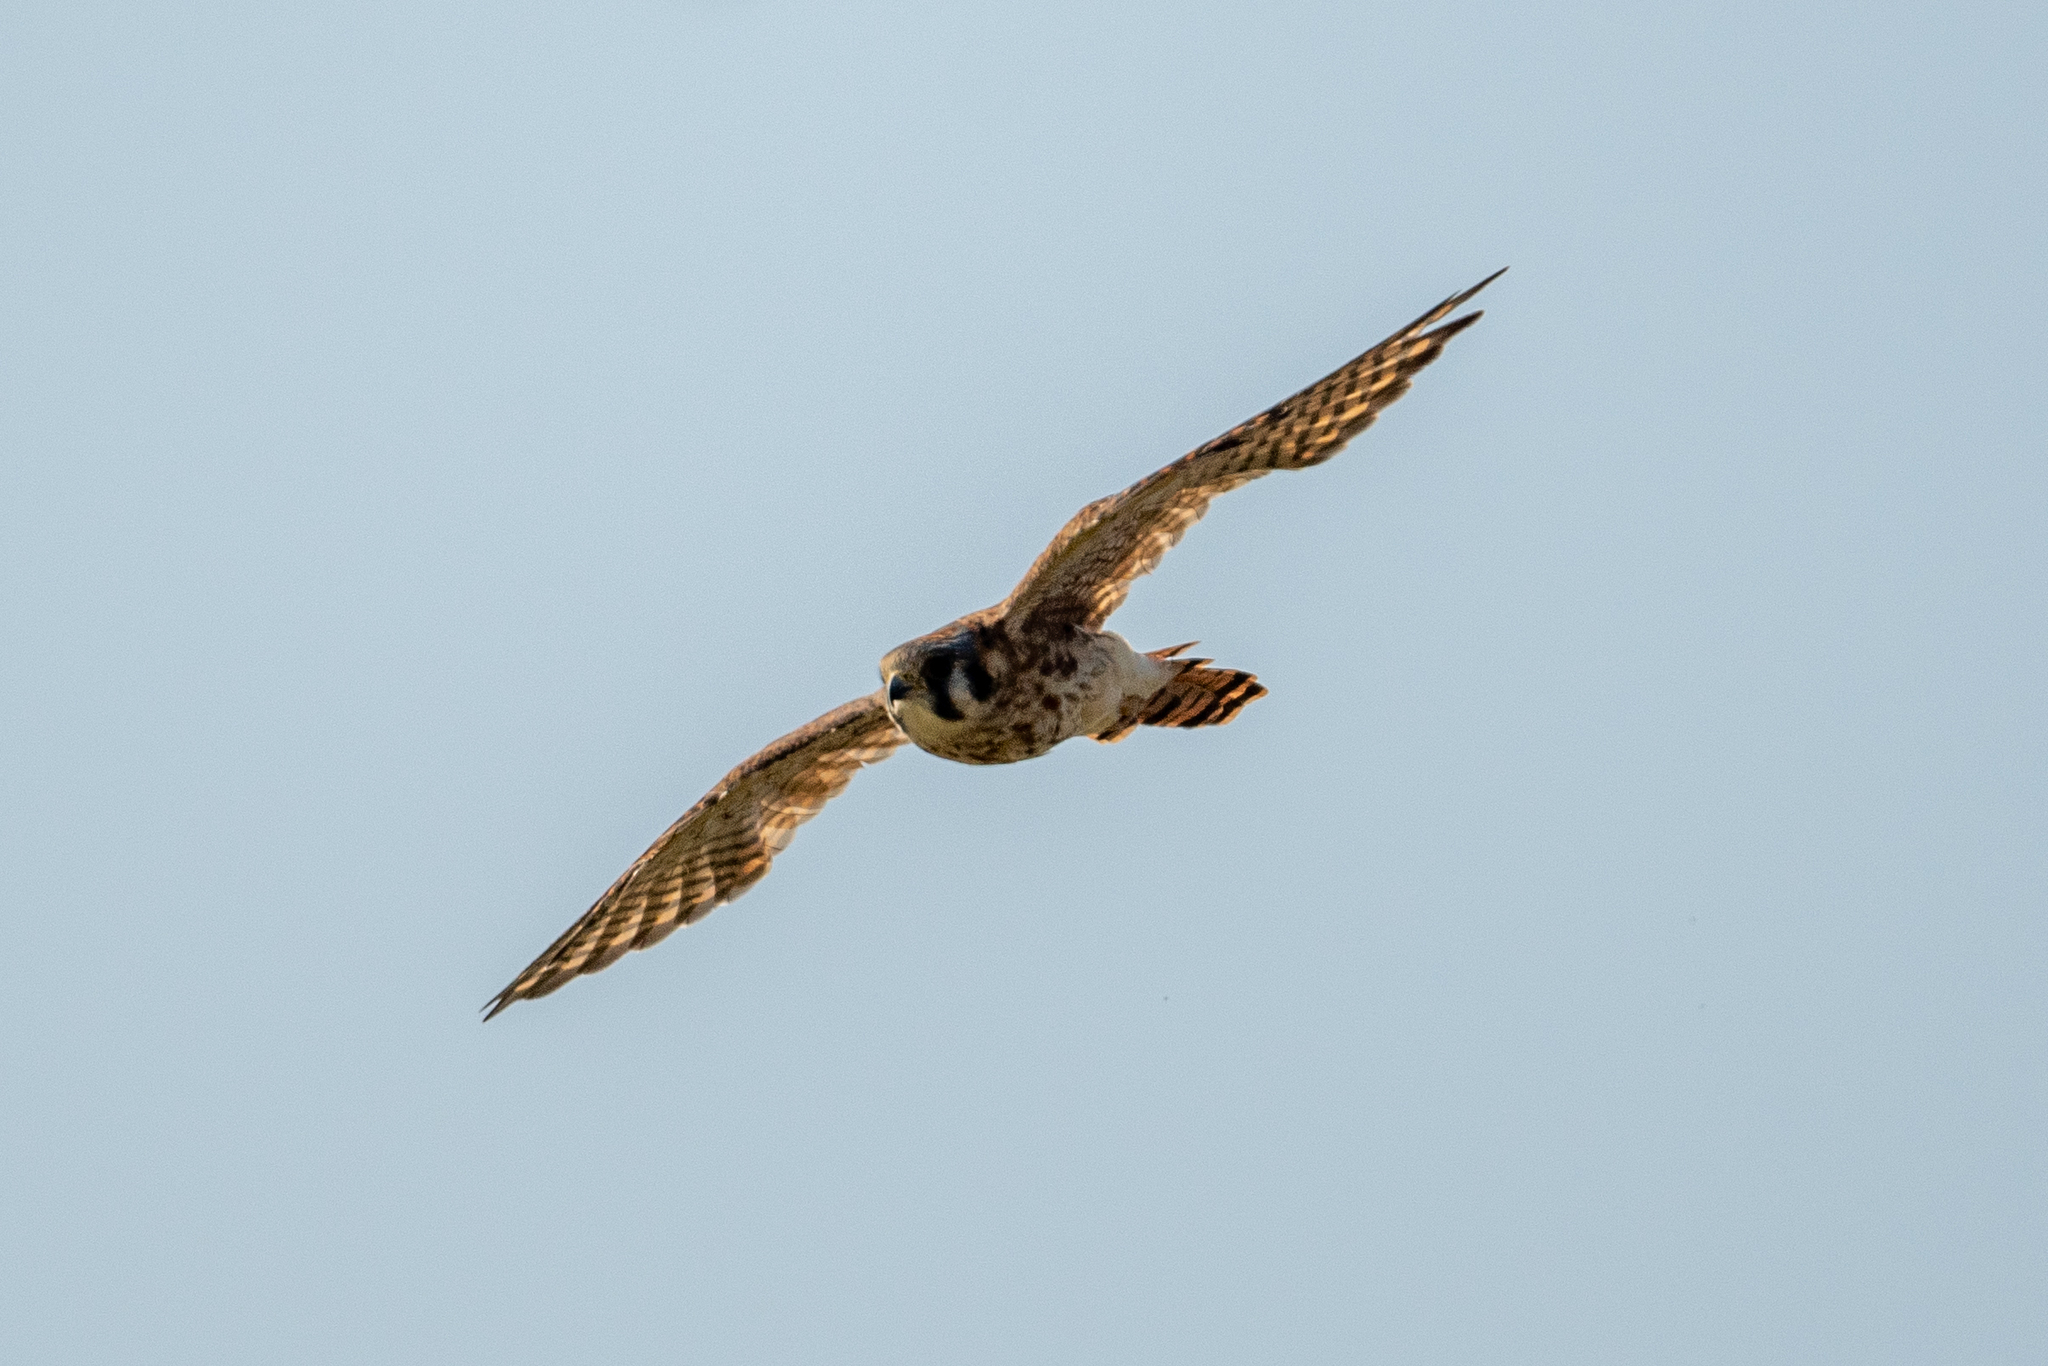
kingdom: Animalia
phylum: Chordata
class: Aves
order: Falconiformes
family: Falconidae
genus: Falco
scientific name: Falco sparverius
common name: American kestrel
